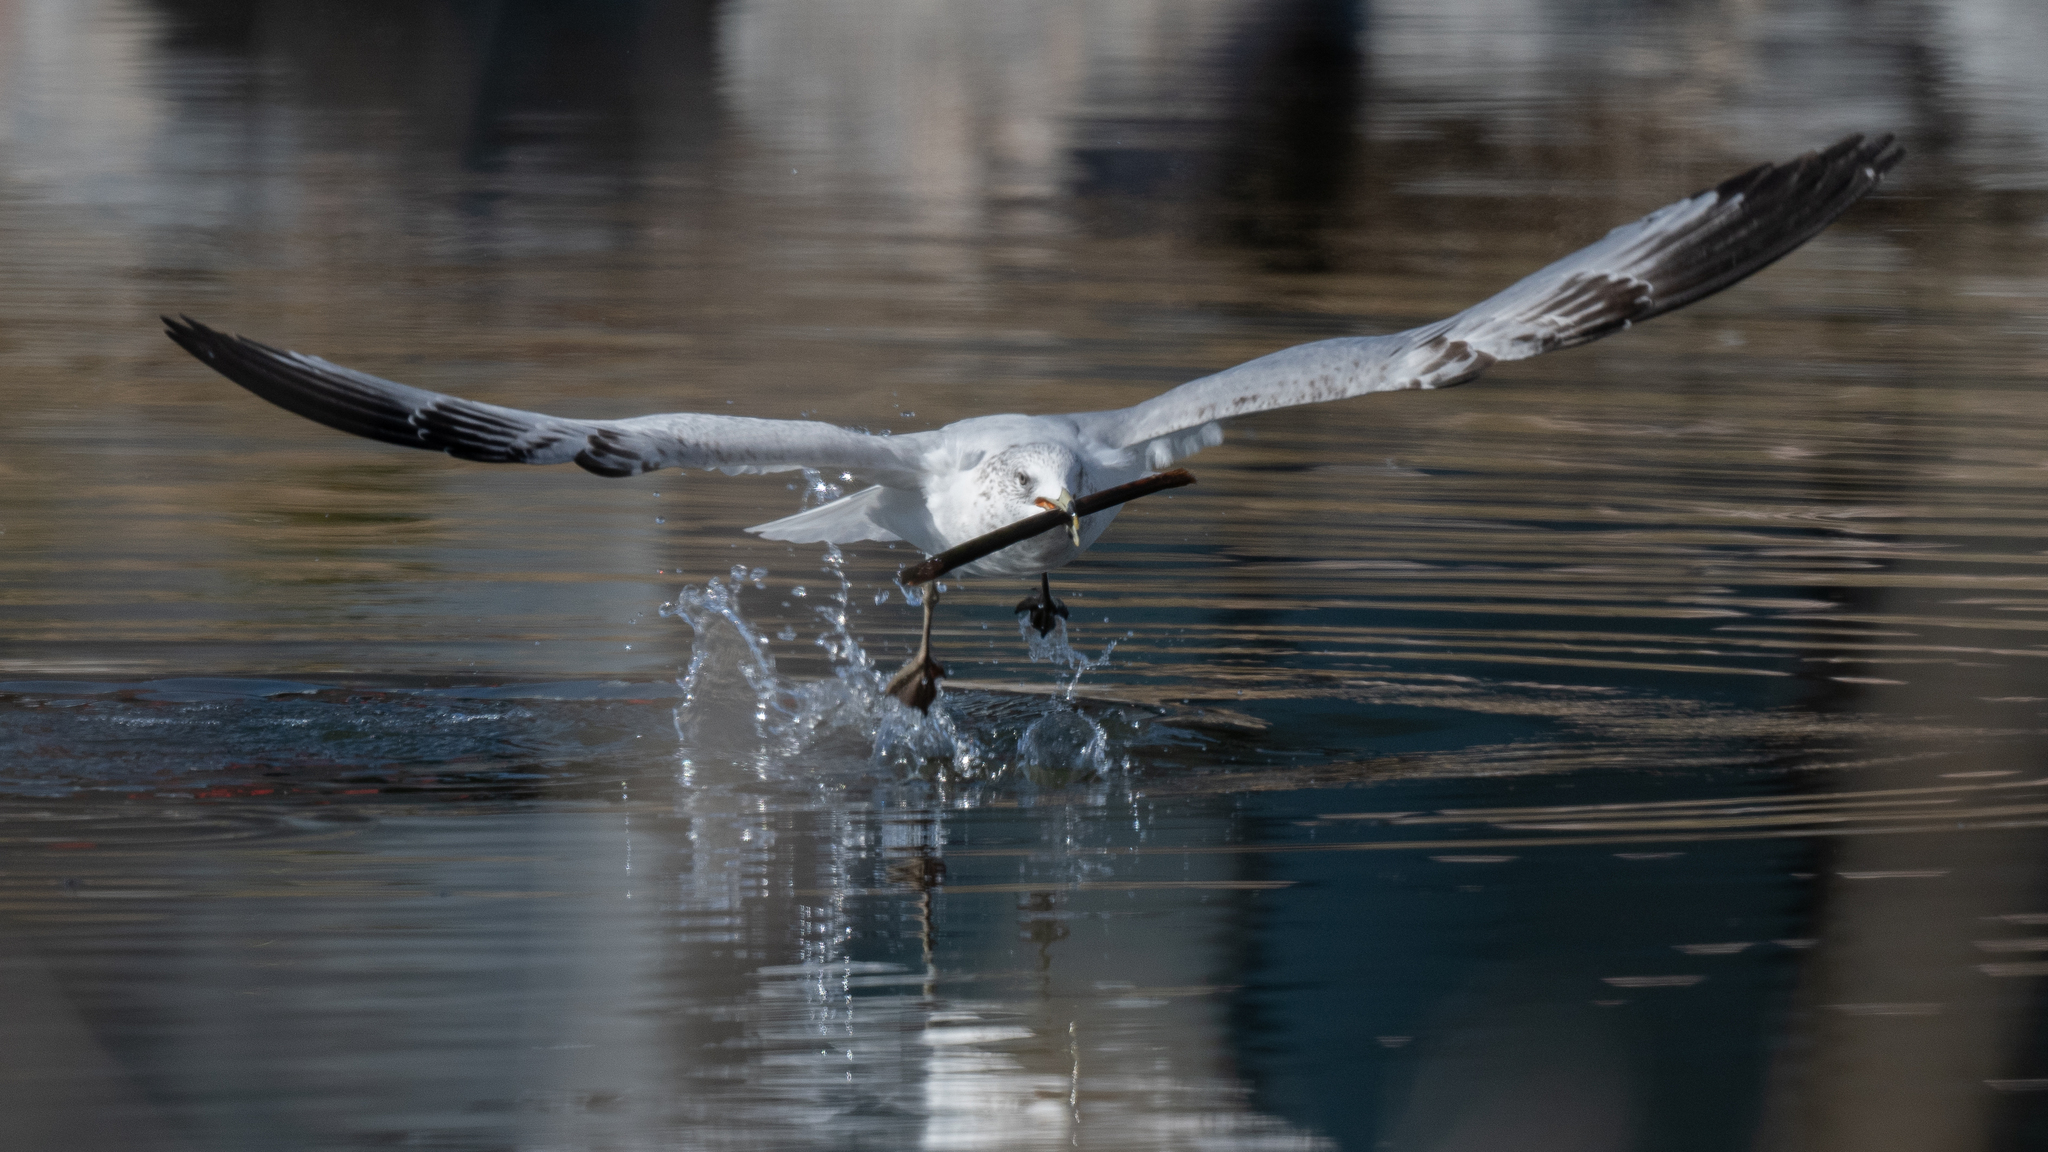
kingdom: Animalia
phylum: Chordata
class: Aves
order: Charadriiformes
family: Laridae
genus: Larus
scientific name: Larus delawarensis
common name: Ring-billed gull
